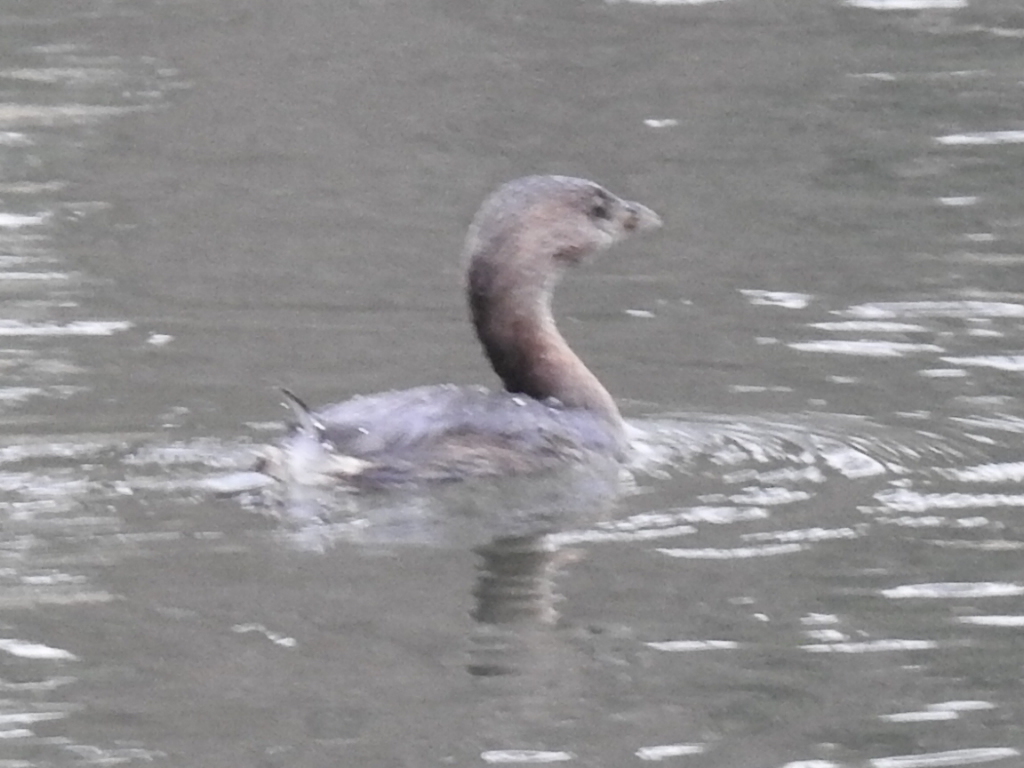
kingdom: Animalia
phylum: Chordata
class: Aves
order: Podicipediformes
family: Podicipedidae
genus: Podilymbus
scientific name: Podilymbus podiceps
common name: Pied-billed grebe
